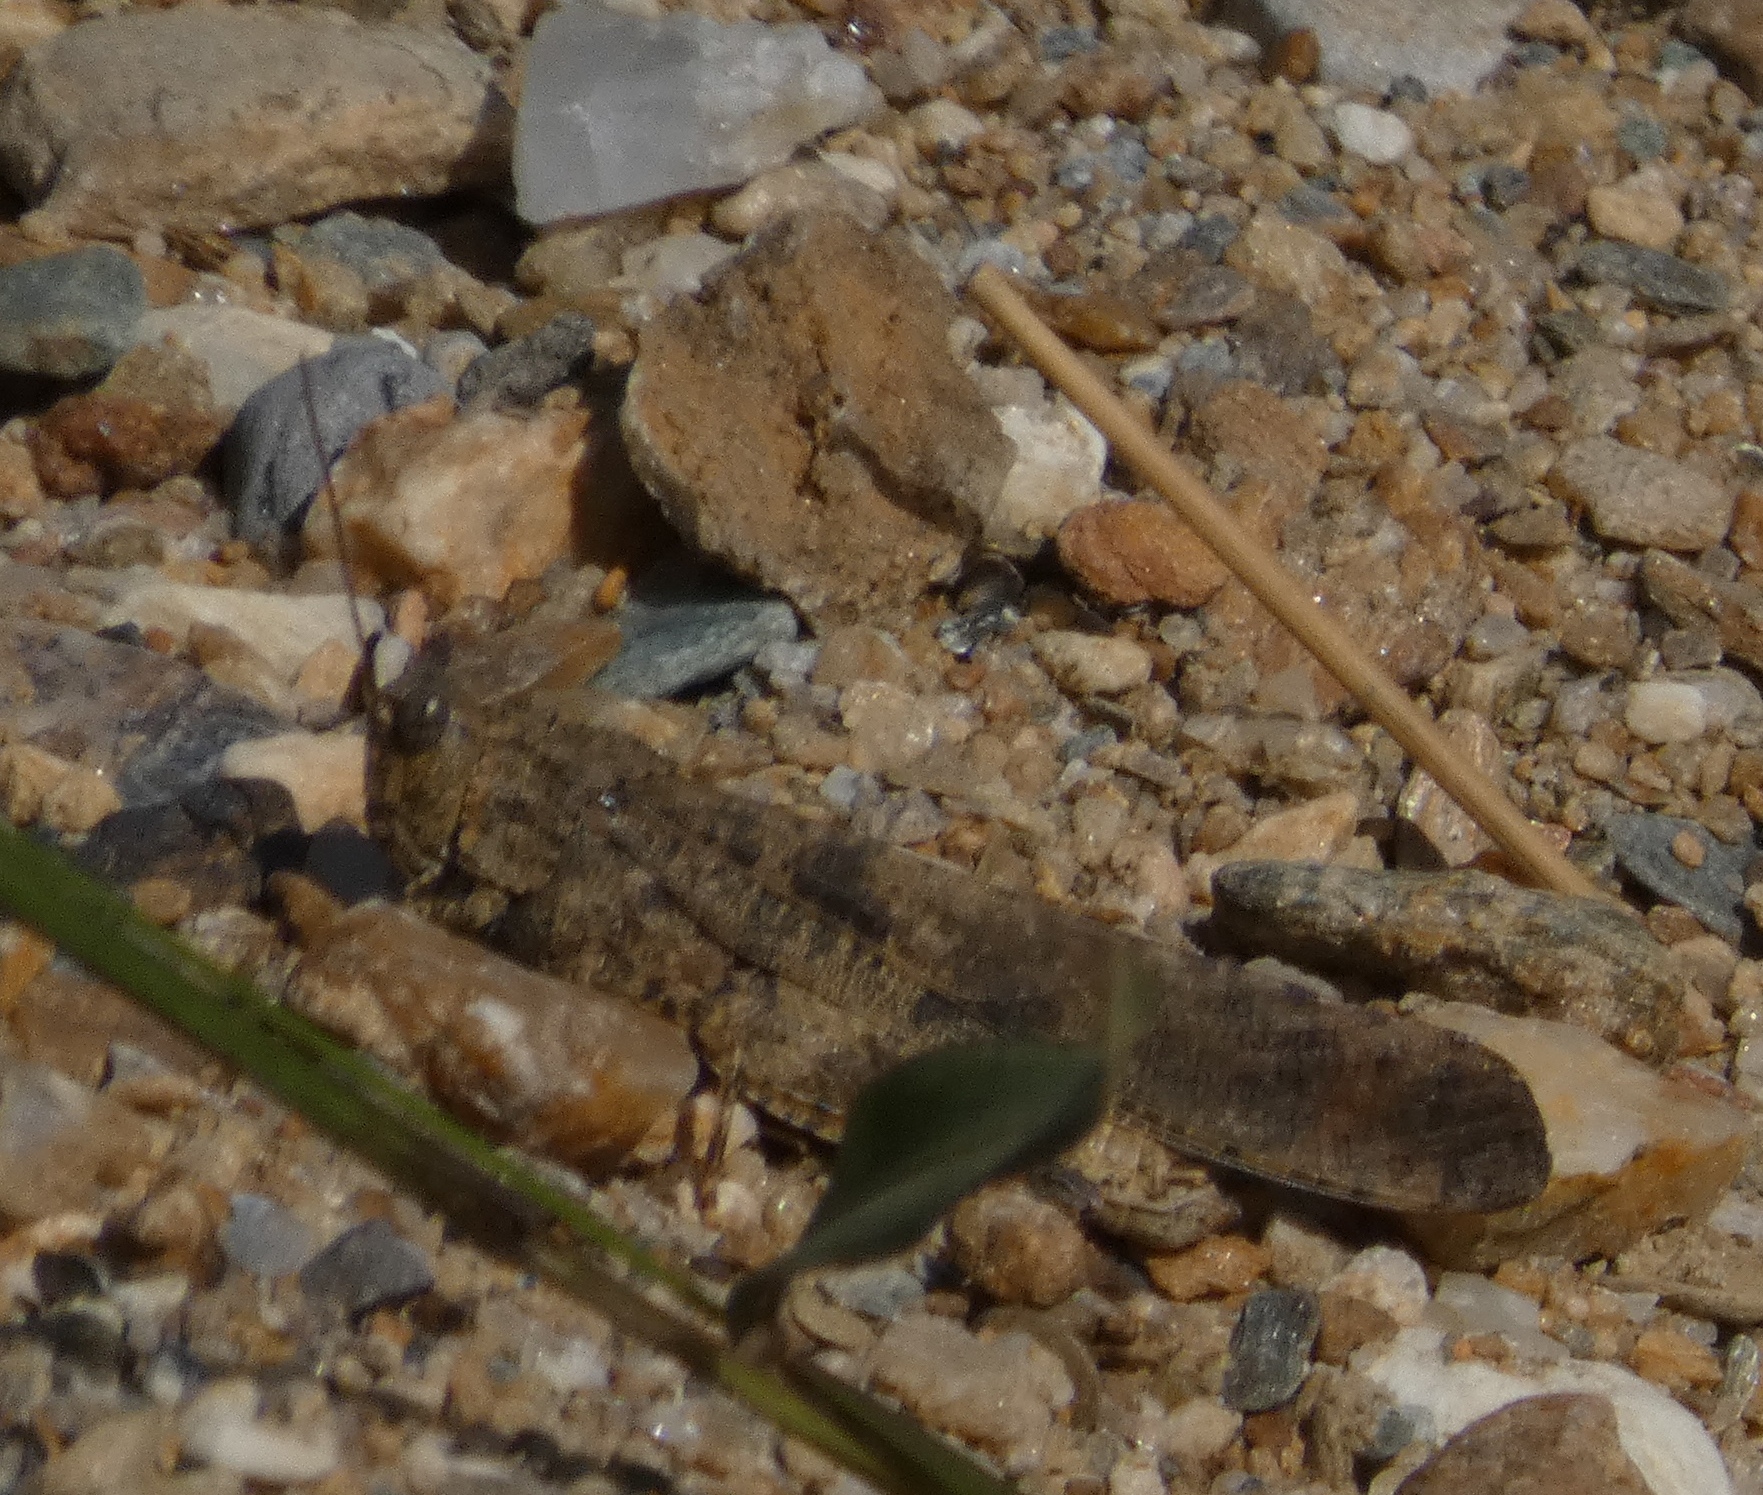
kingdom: Animalia
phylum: Arthropoda
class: Insecta
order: Orthoptera
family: Acrididae
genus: Dissosteira
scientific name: Dissosteira carolina
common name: Carolina grasshopper
